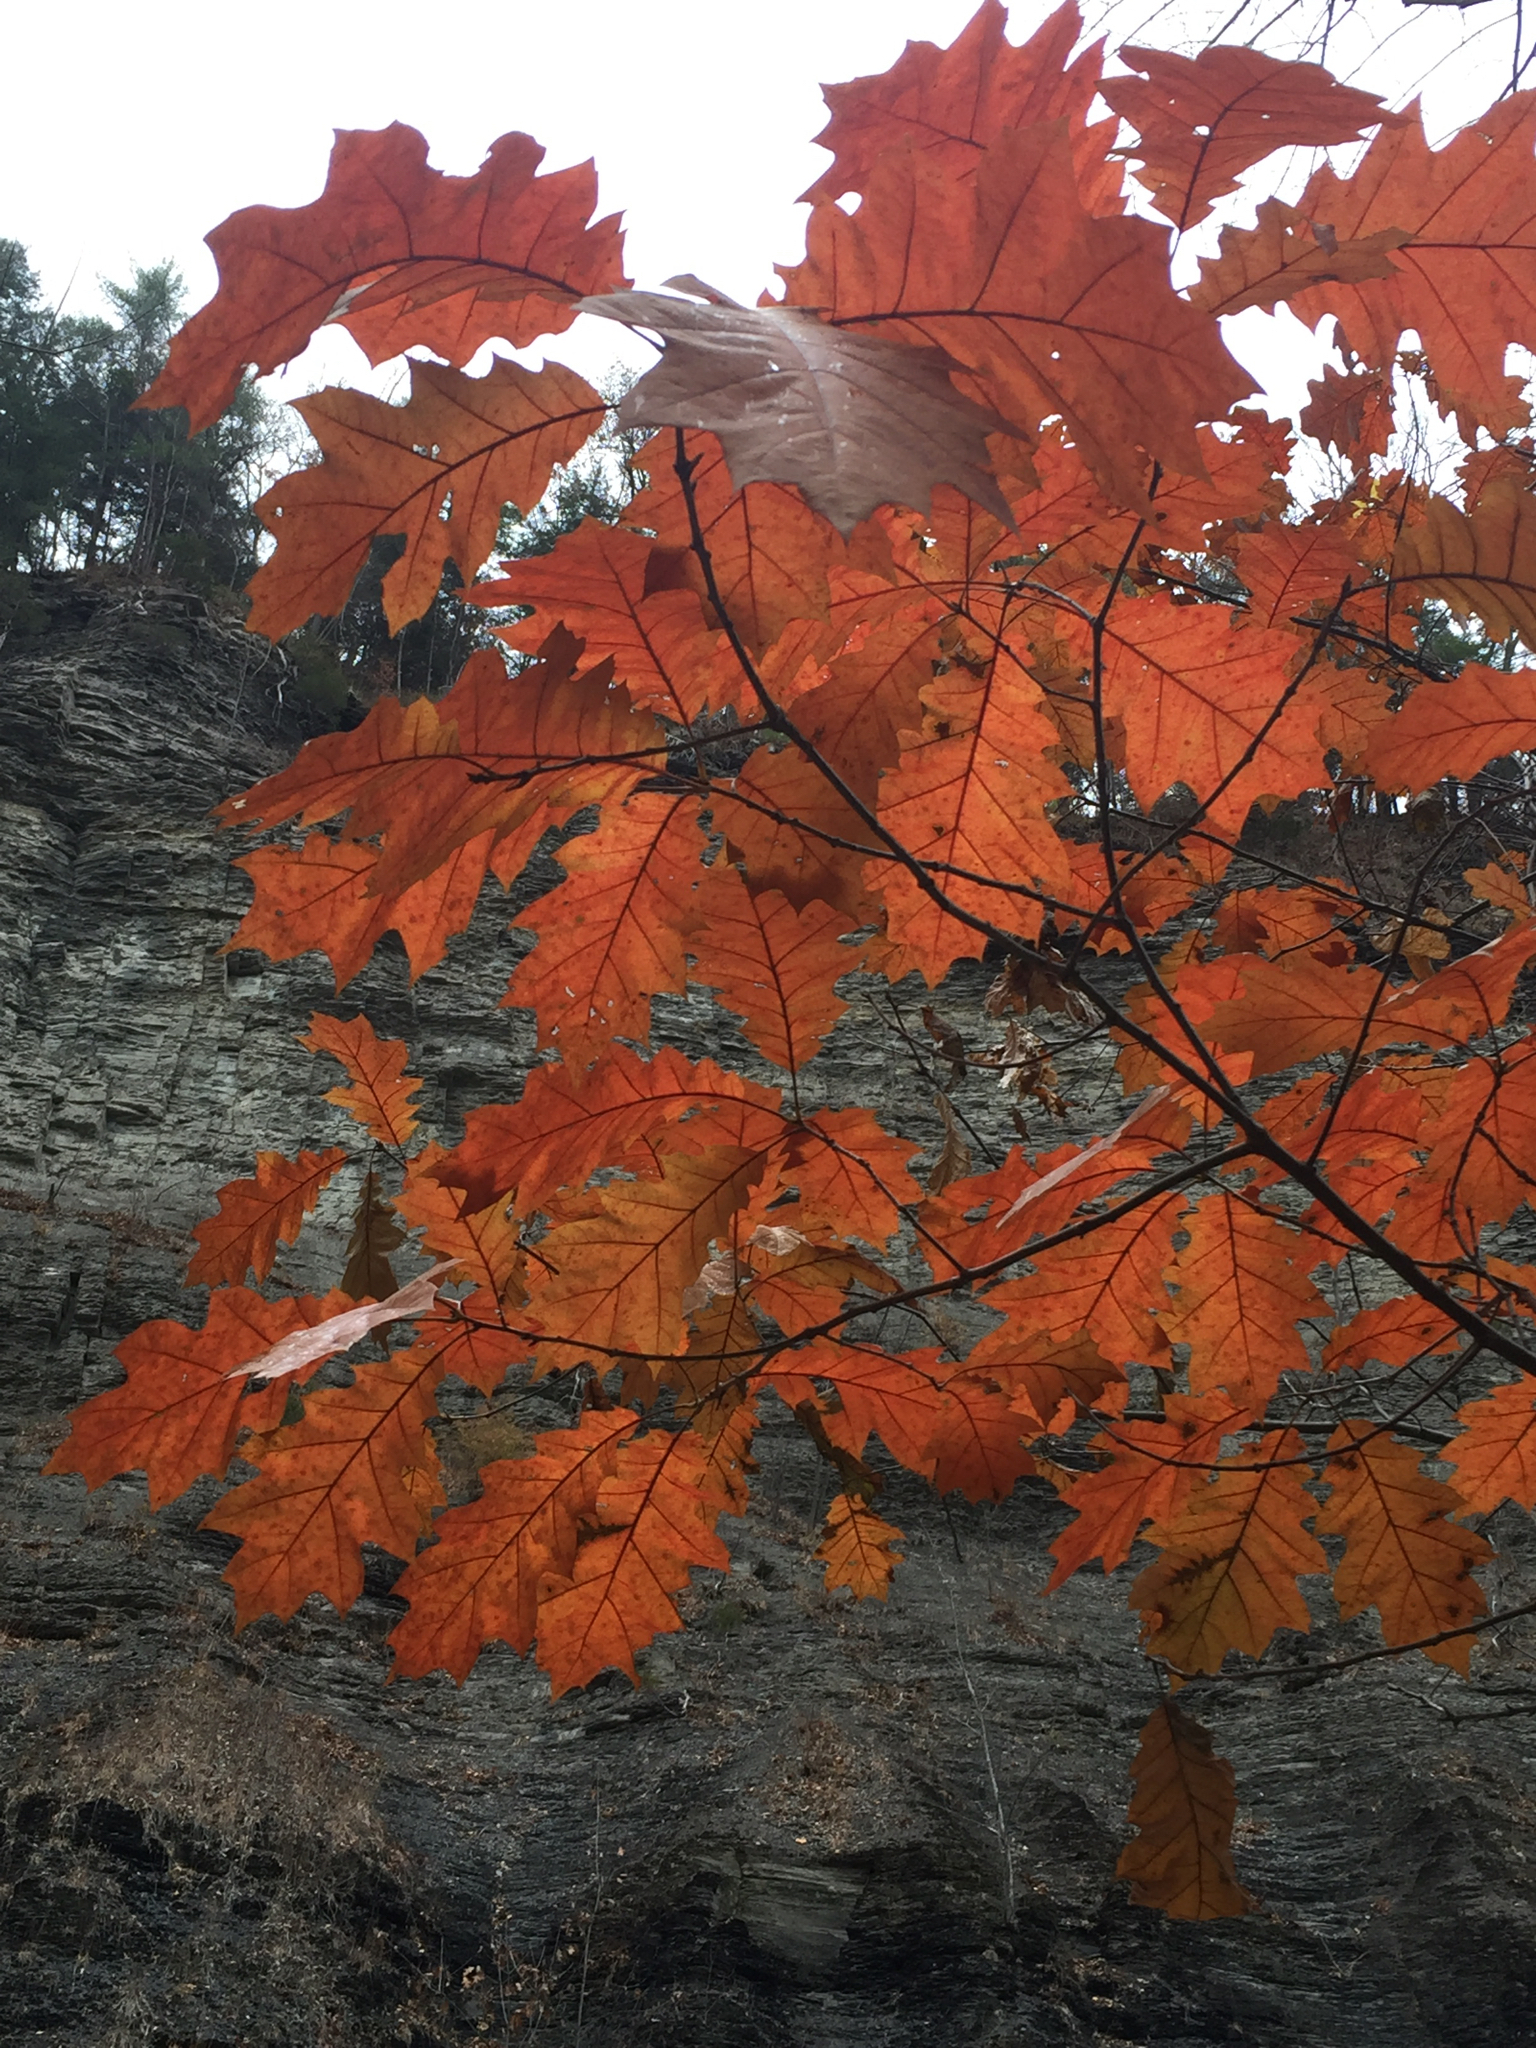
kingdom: Plantae
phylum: Tracheophyta
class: Magnoliopsida
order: Fagales
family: Fagaceae
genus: Quercus
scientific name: Quercus rubra
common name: Red oak
